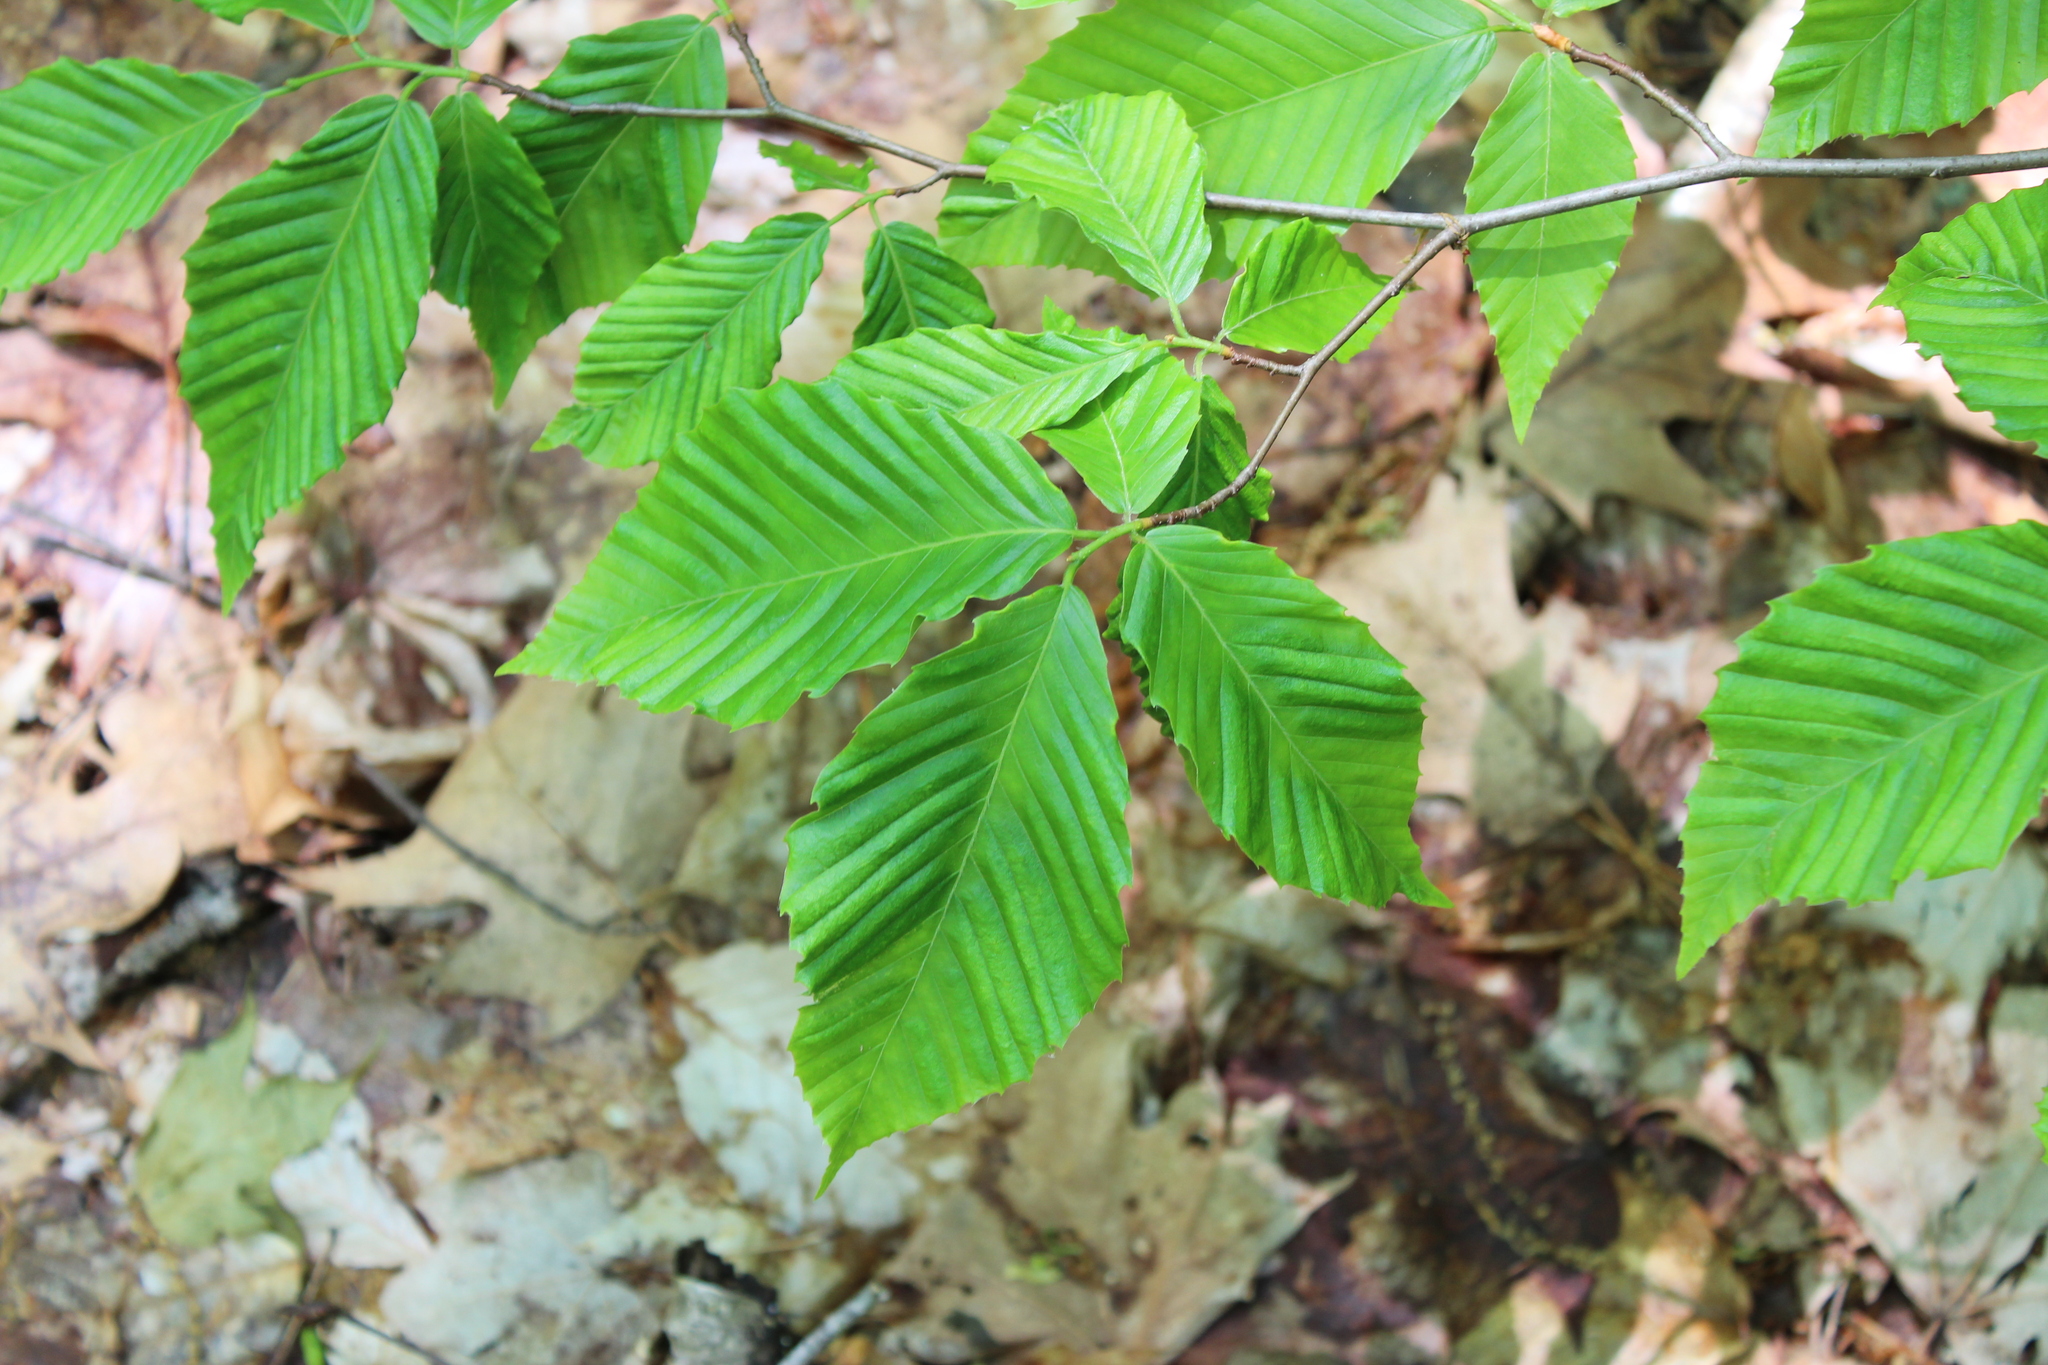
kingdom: Animalia
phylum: Nematoda
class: Chromadorea
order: Rhabditida
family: Anguinidae
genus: Litylenchus
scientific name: Litylenchus crenatae
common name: Beech leaf disease
